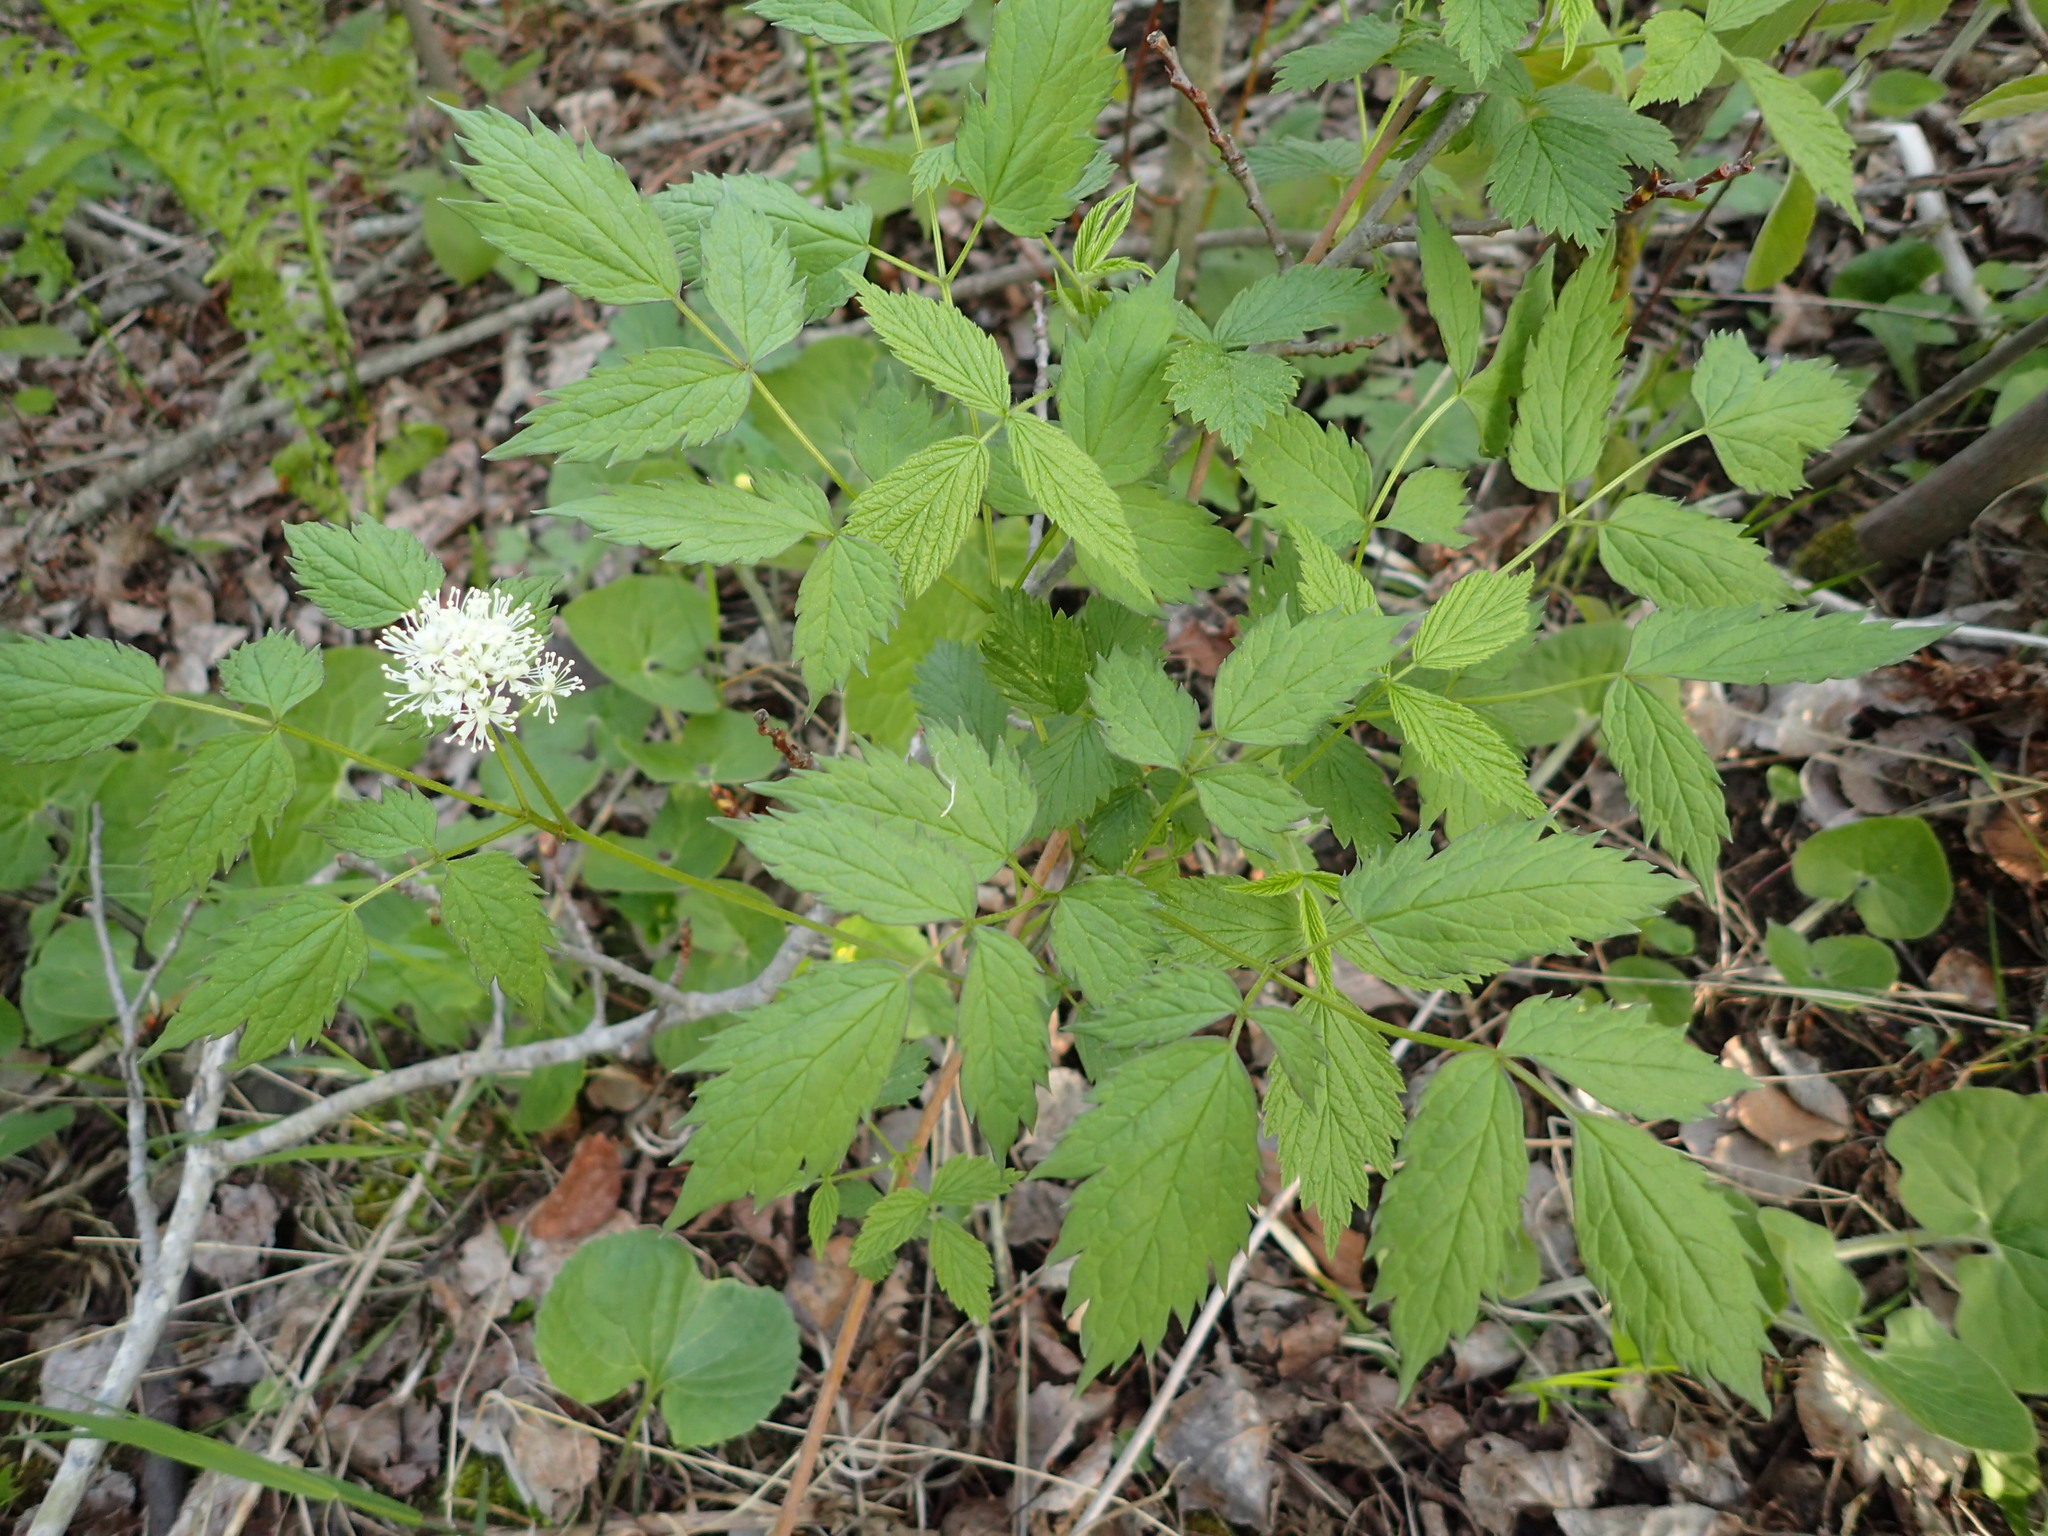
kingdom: Plantae
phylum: Tracheophyta
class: Magnoliopsida
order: Ranunculales
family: Ranunculaceae
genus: Actaea
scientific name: Actaea rubra
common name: Red baneberry
